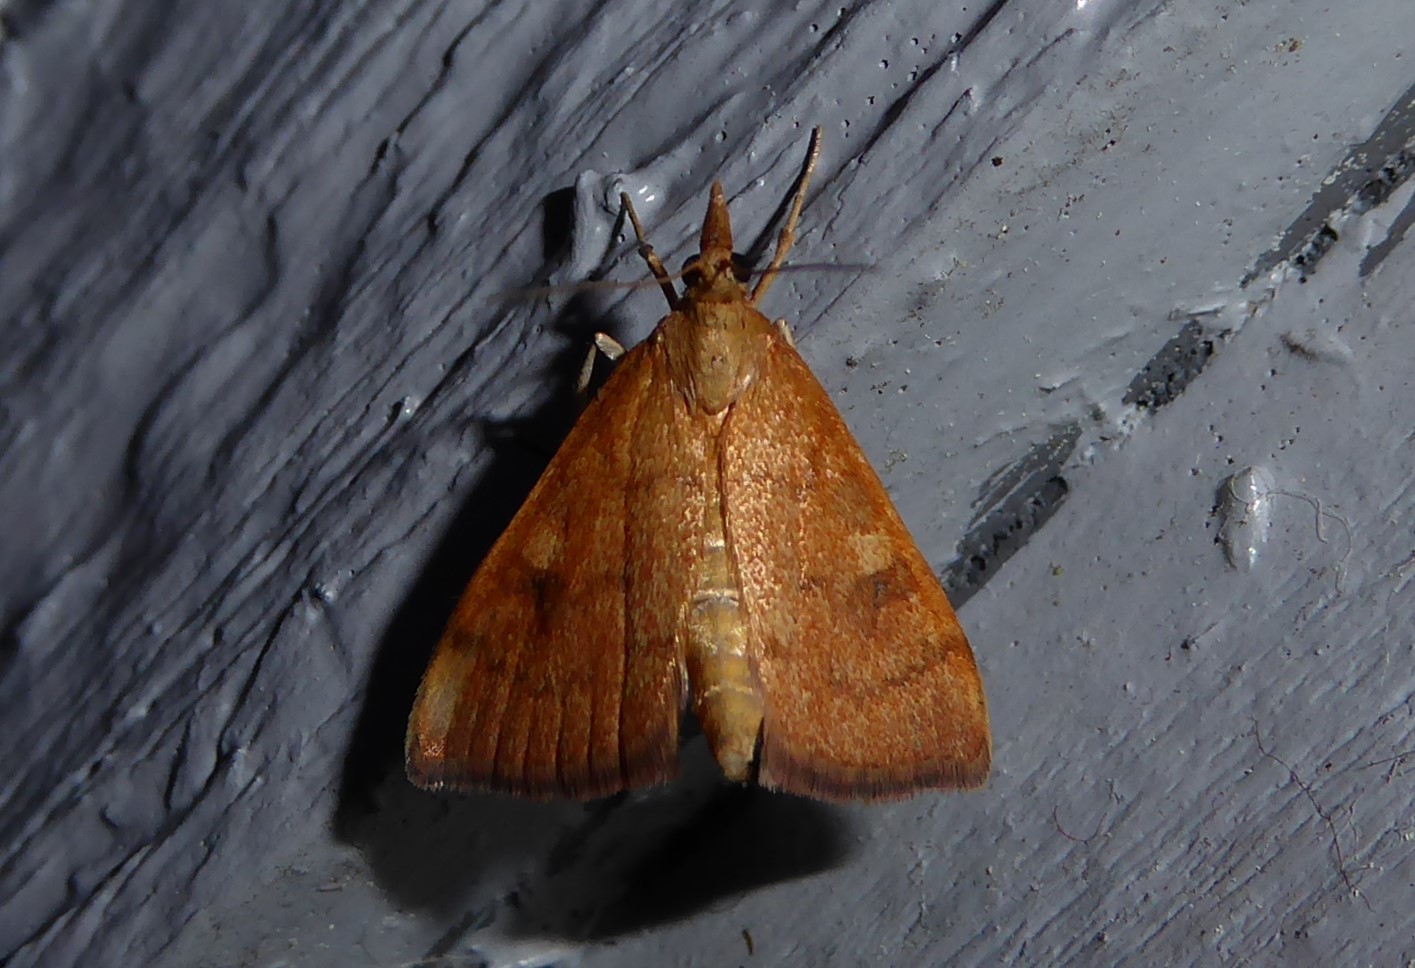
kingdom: Animalia
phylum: Arthropoda
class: Insecta
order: Lepidoptera
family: Crambidae
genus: Udea
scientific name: Udea Mnesictena flavidalis
